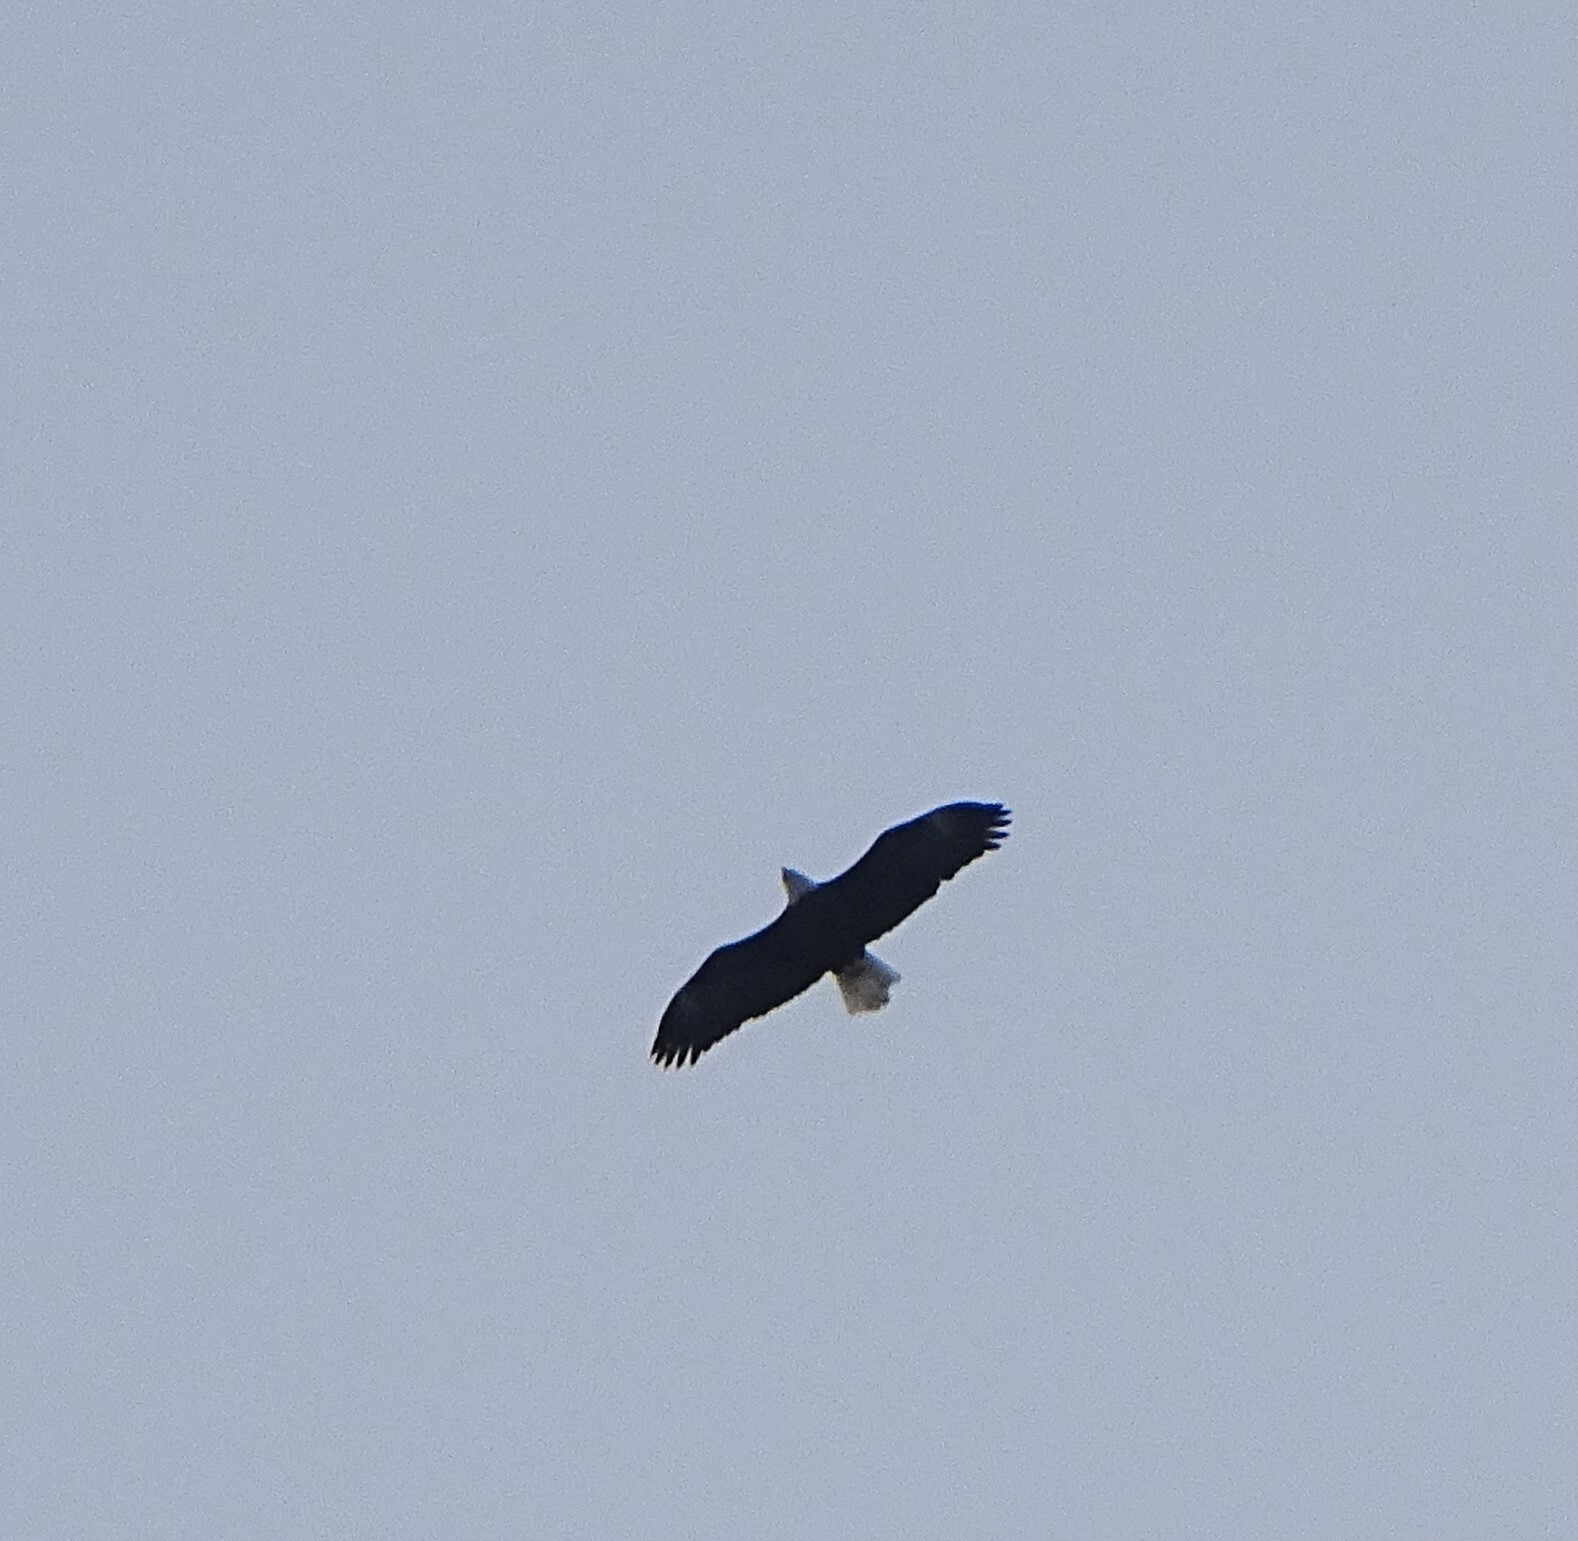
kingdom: Animalia
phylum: Chordata
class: Aves
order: Accipitriformes
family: Accipitridae
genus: Haliaeetus
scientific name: Haliaeetus leucocephalus
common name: Bald eagle
